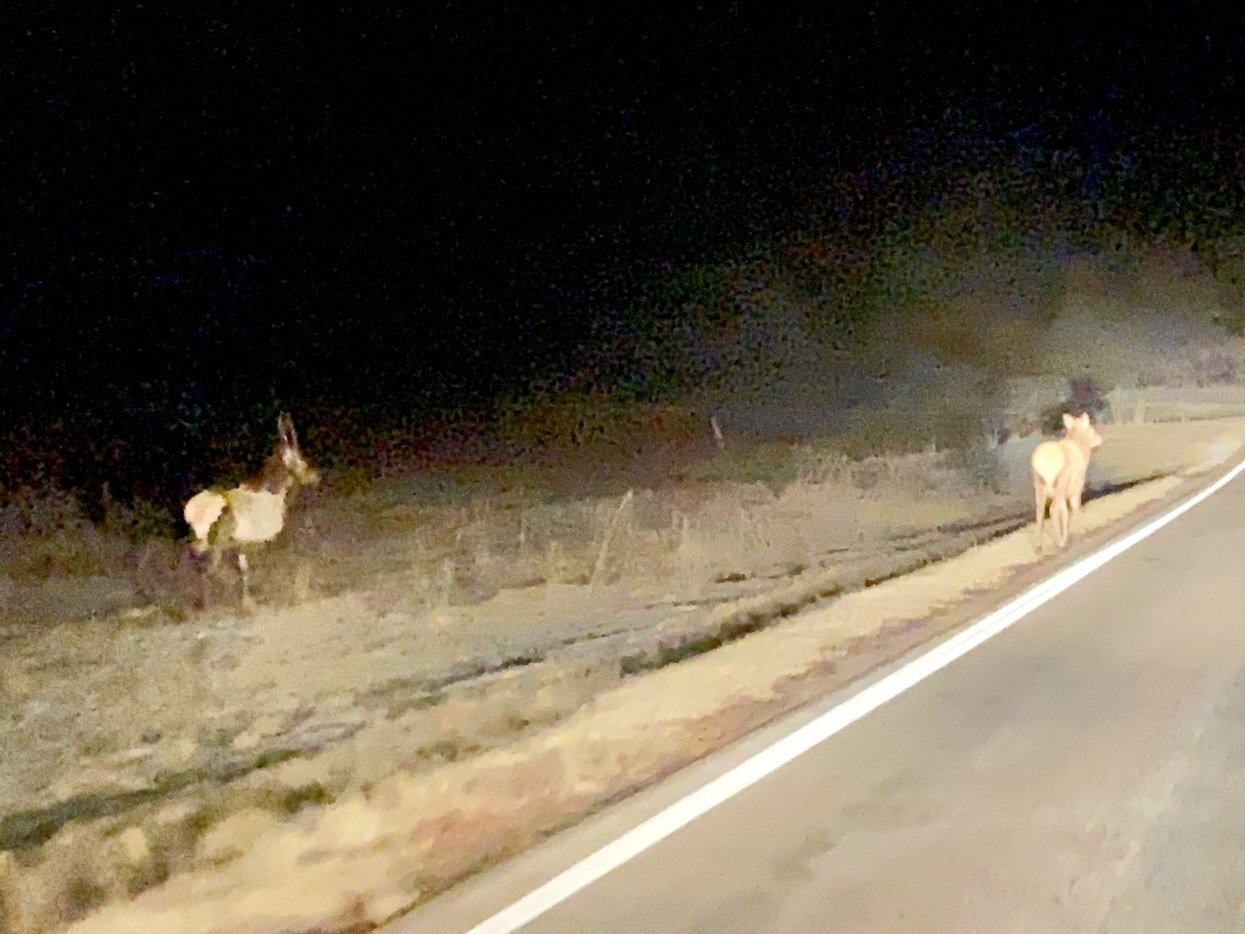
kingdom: Animalia
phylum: Chordata
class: Mammalia
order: Artiodactyla
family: Cervidae
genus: Cervus
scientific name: Cervus elaphus
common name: Red deer
